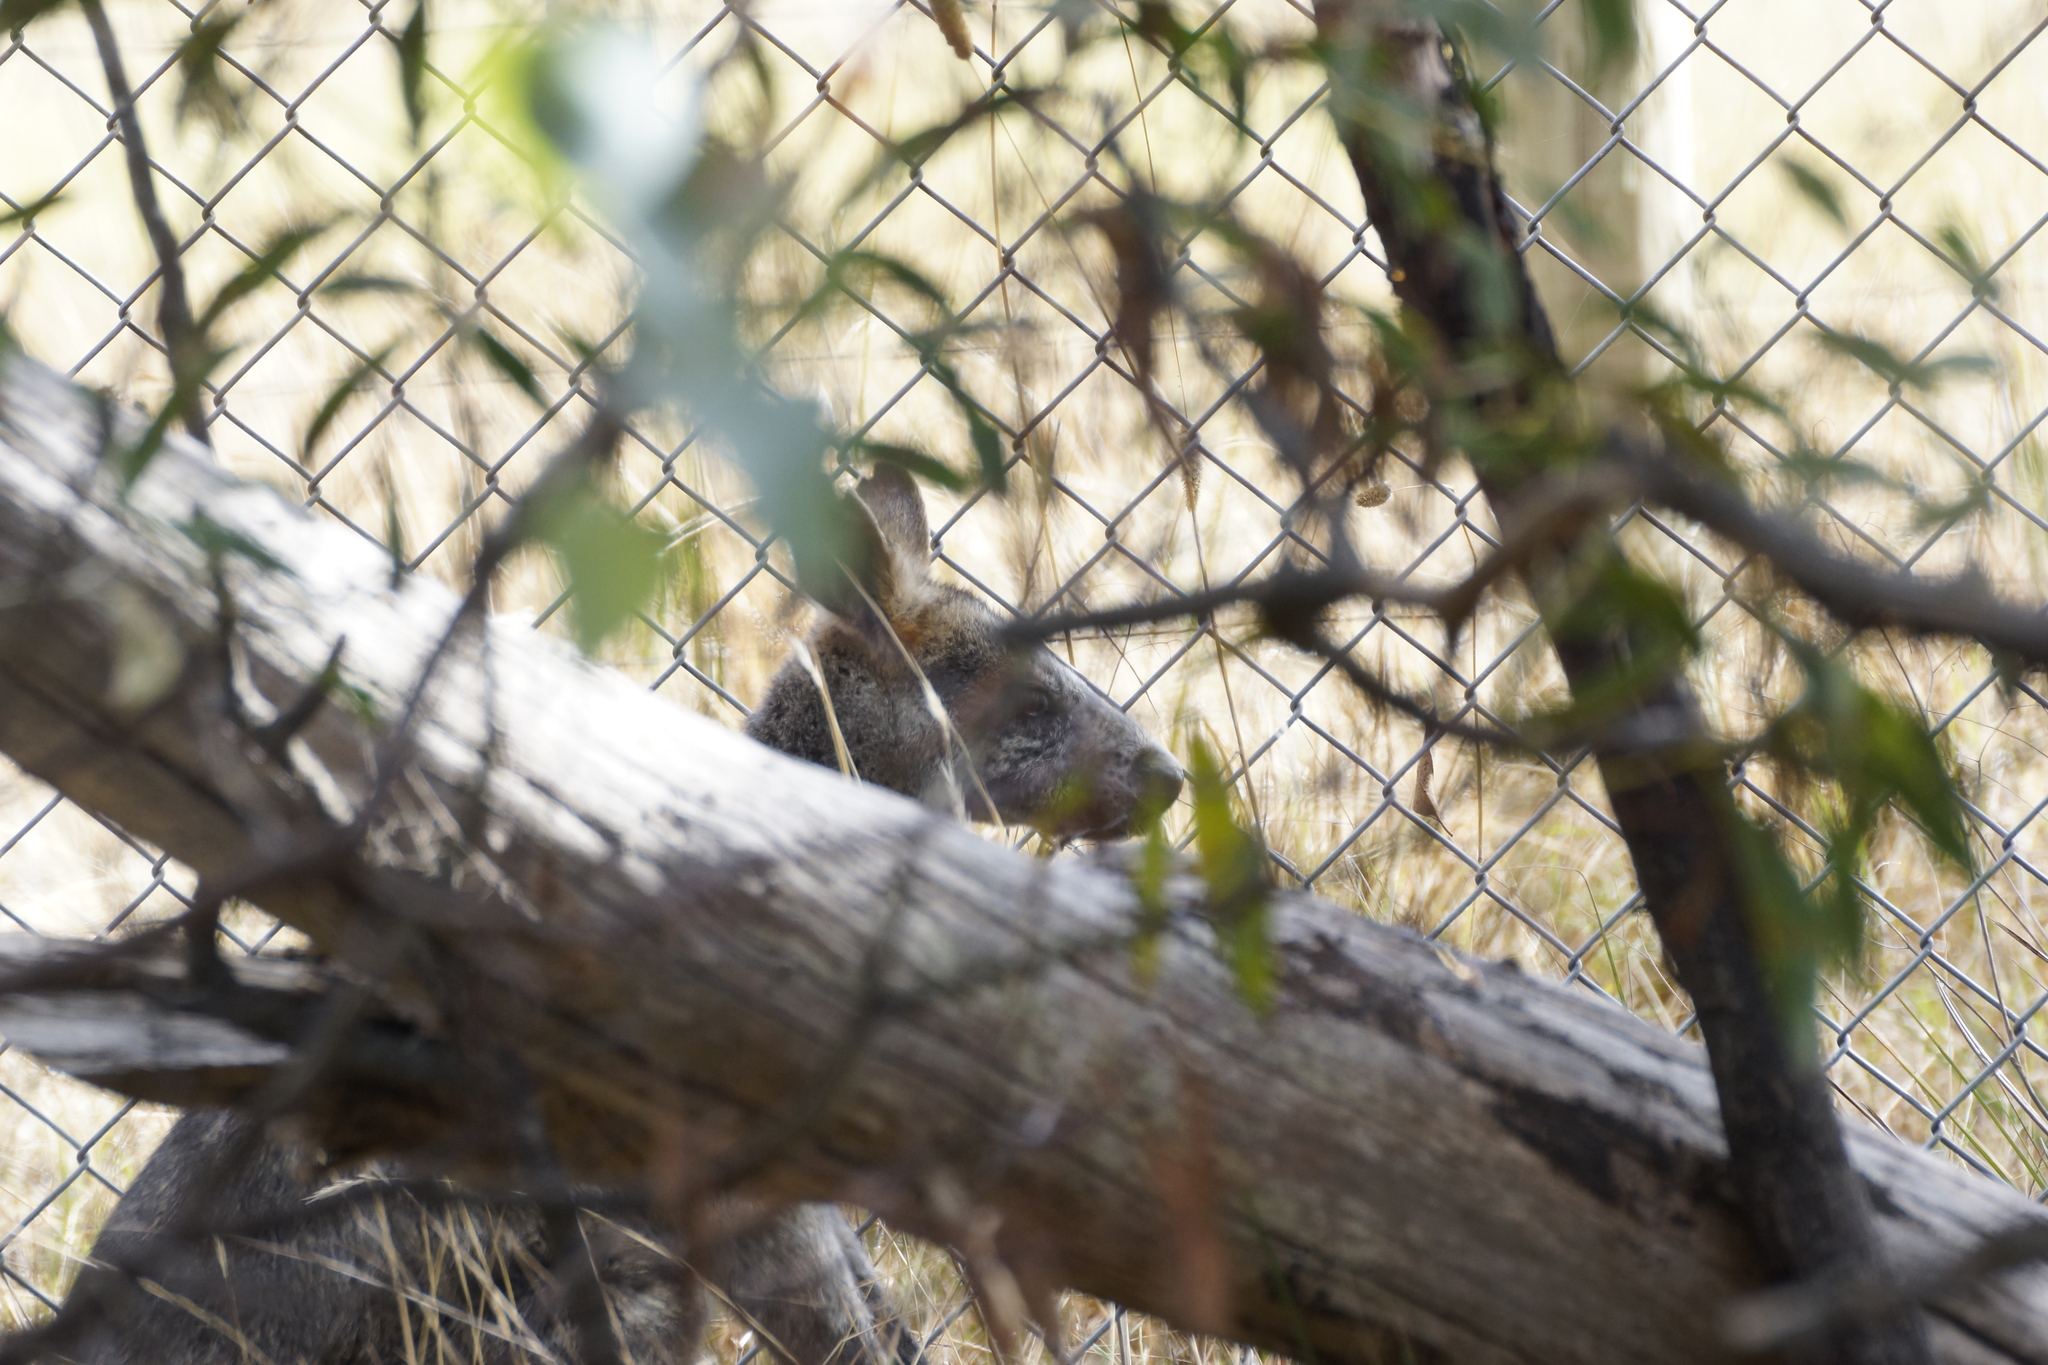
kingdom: Animalia
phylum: Chordata
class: Mammalia
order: Diprotodontia
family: Macropodidae
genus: Wallabia
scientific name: Wallabia bicolor
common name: Swamp wallaby
